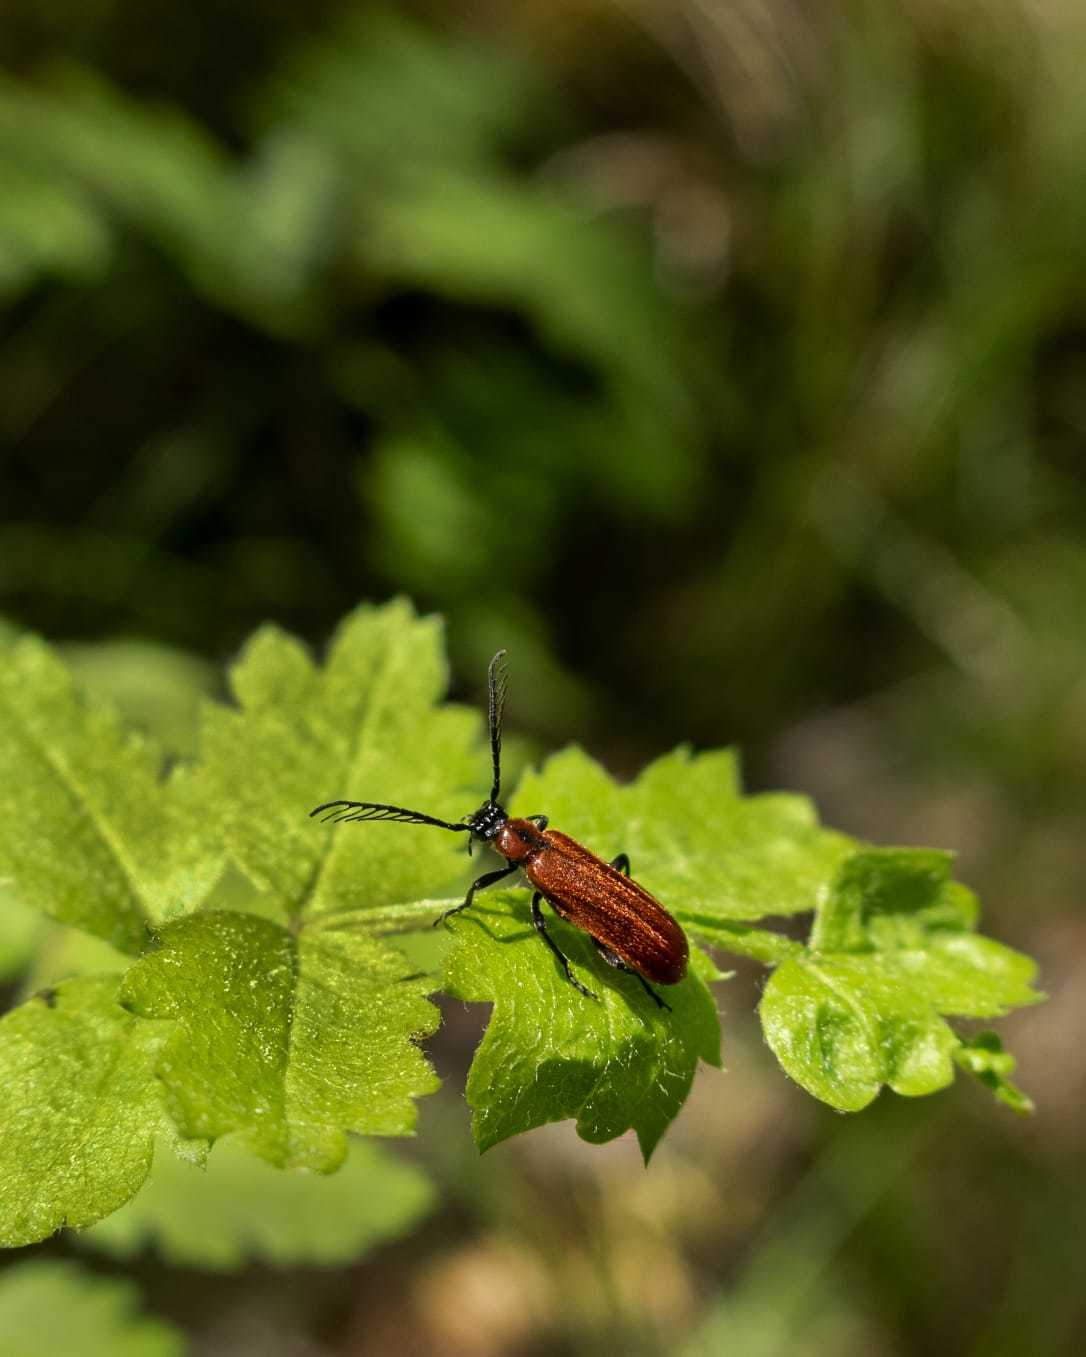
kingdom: Animalia
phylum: Arthropoda
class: Insecta
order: Coleoptera
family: Pyrochroidae
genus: Schizotus
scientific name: Schizotus pectinicornis
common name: Scarce cardinal beetle
